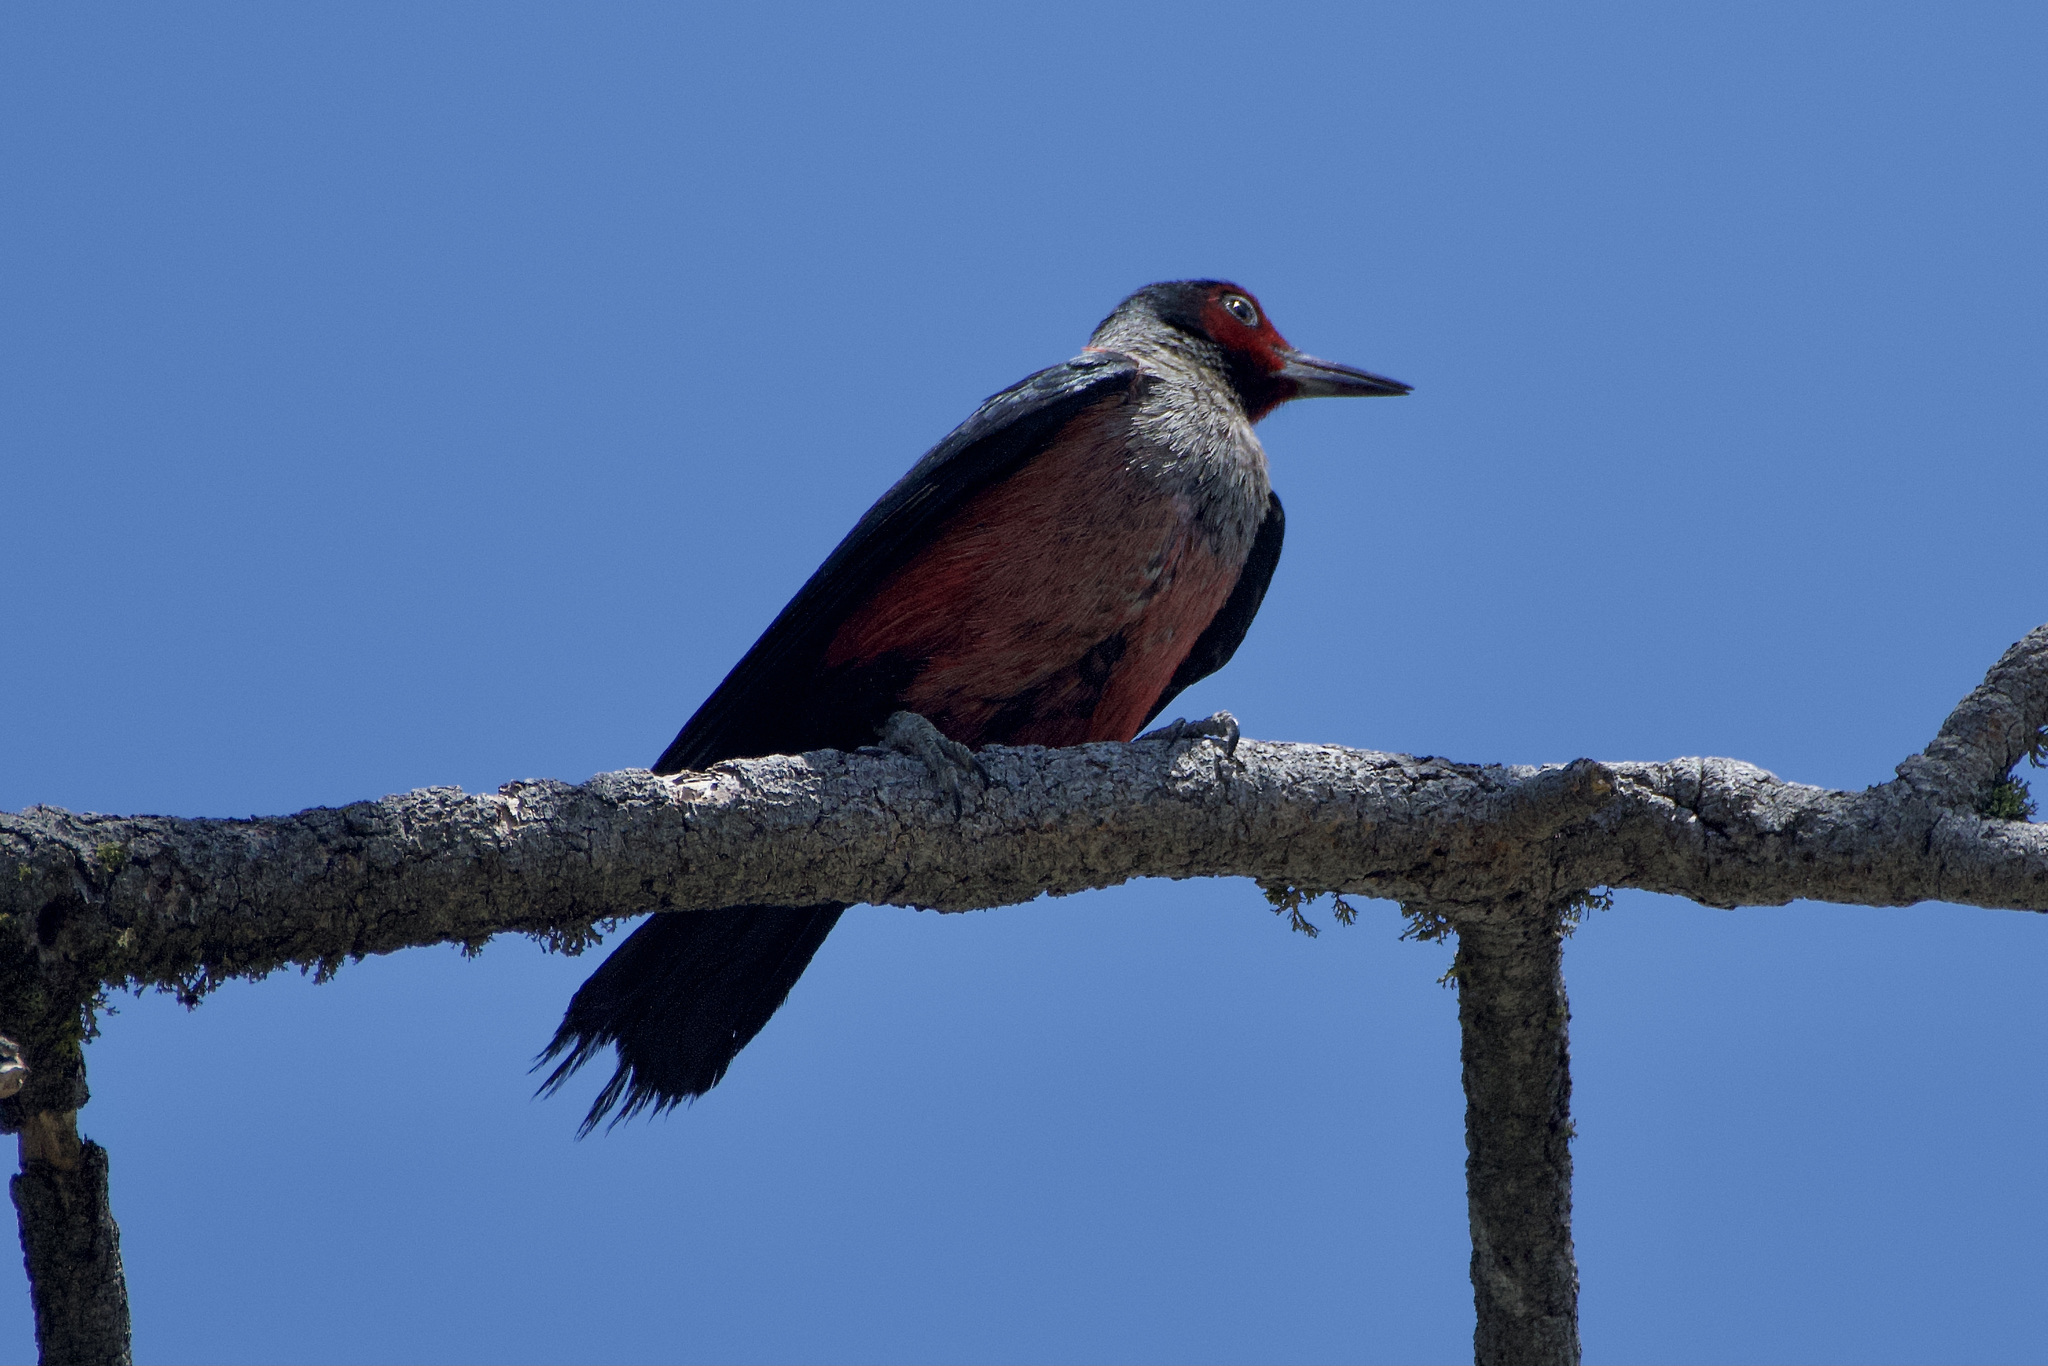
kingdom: Animalia
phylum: Chordata
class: Aves
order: Piciformes
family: Picidae
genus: Melanerpes
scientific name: Melanerpes lewis
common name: Lewis's woodpecker
